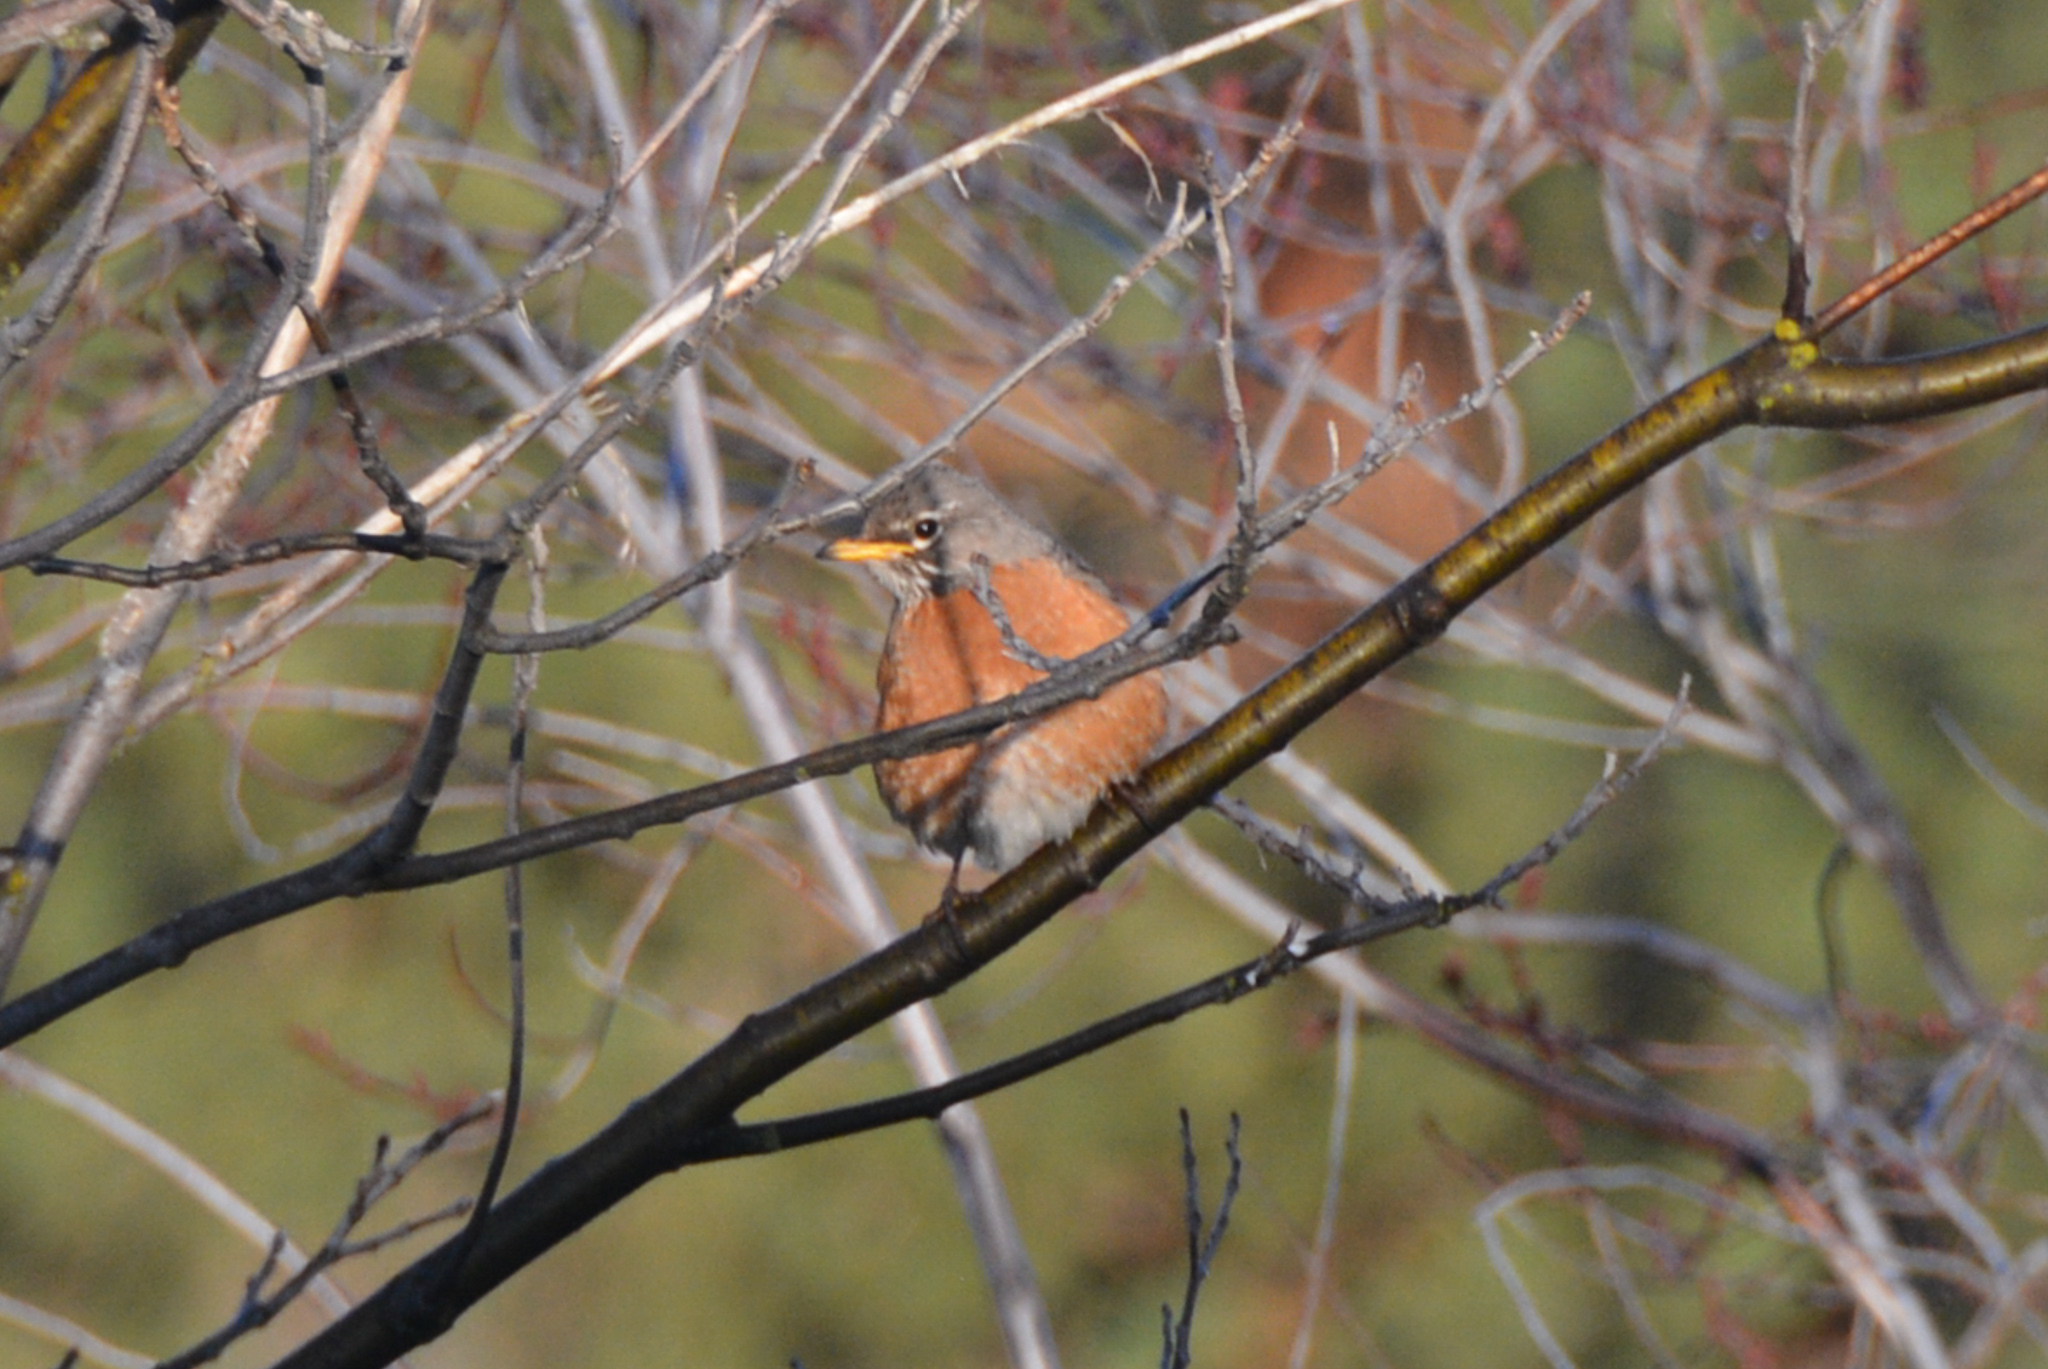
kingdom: Animalia
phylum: Chordata
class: Aves
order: Passeriformes
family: Turdidae
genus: Turdus
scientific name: Turdus migratorius
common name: American robin
